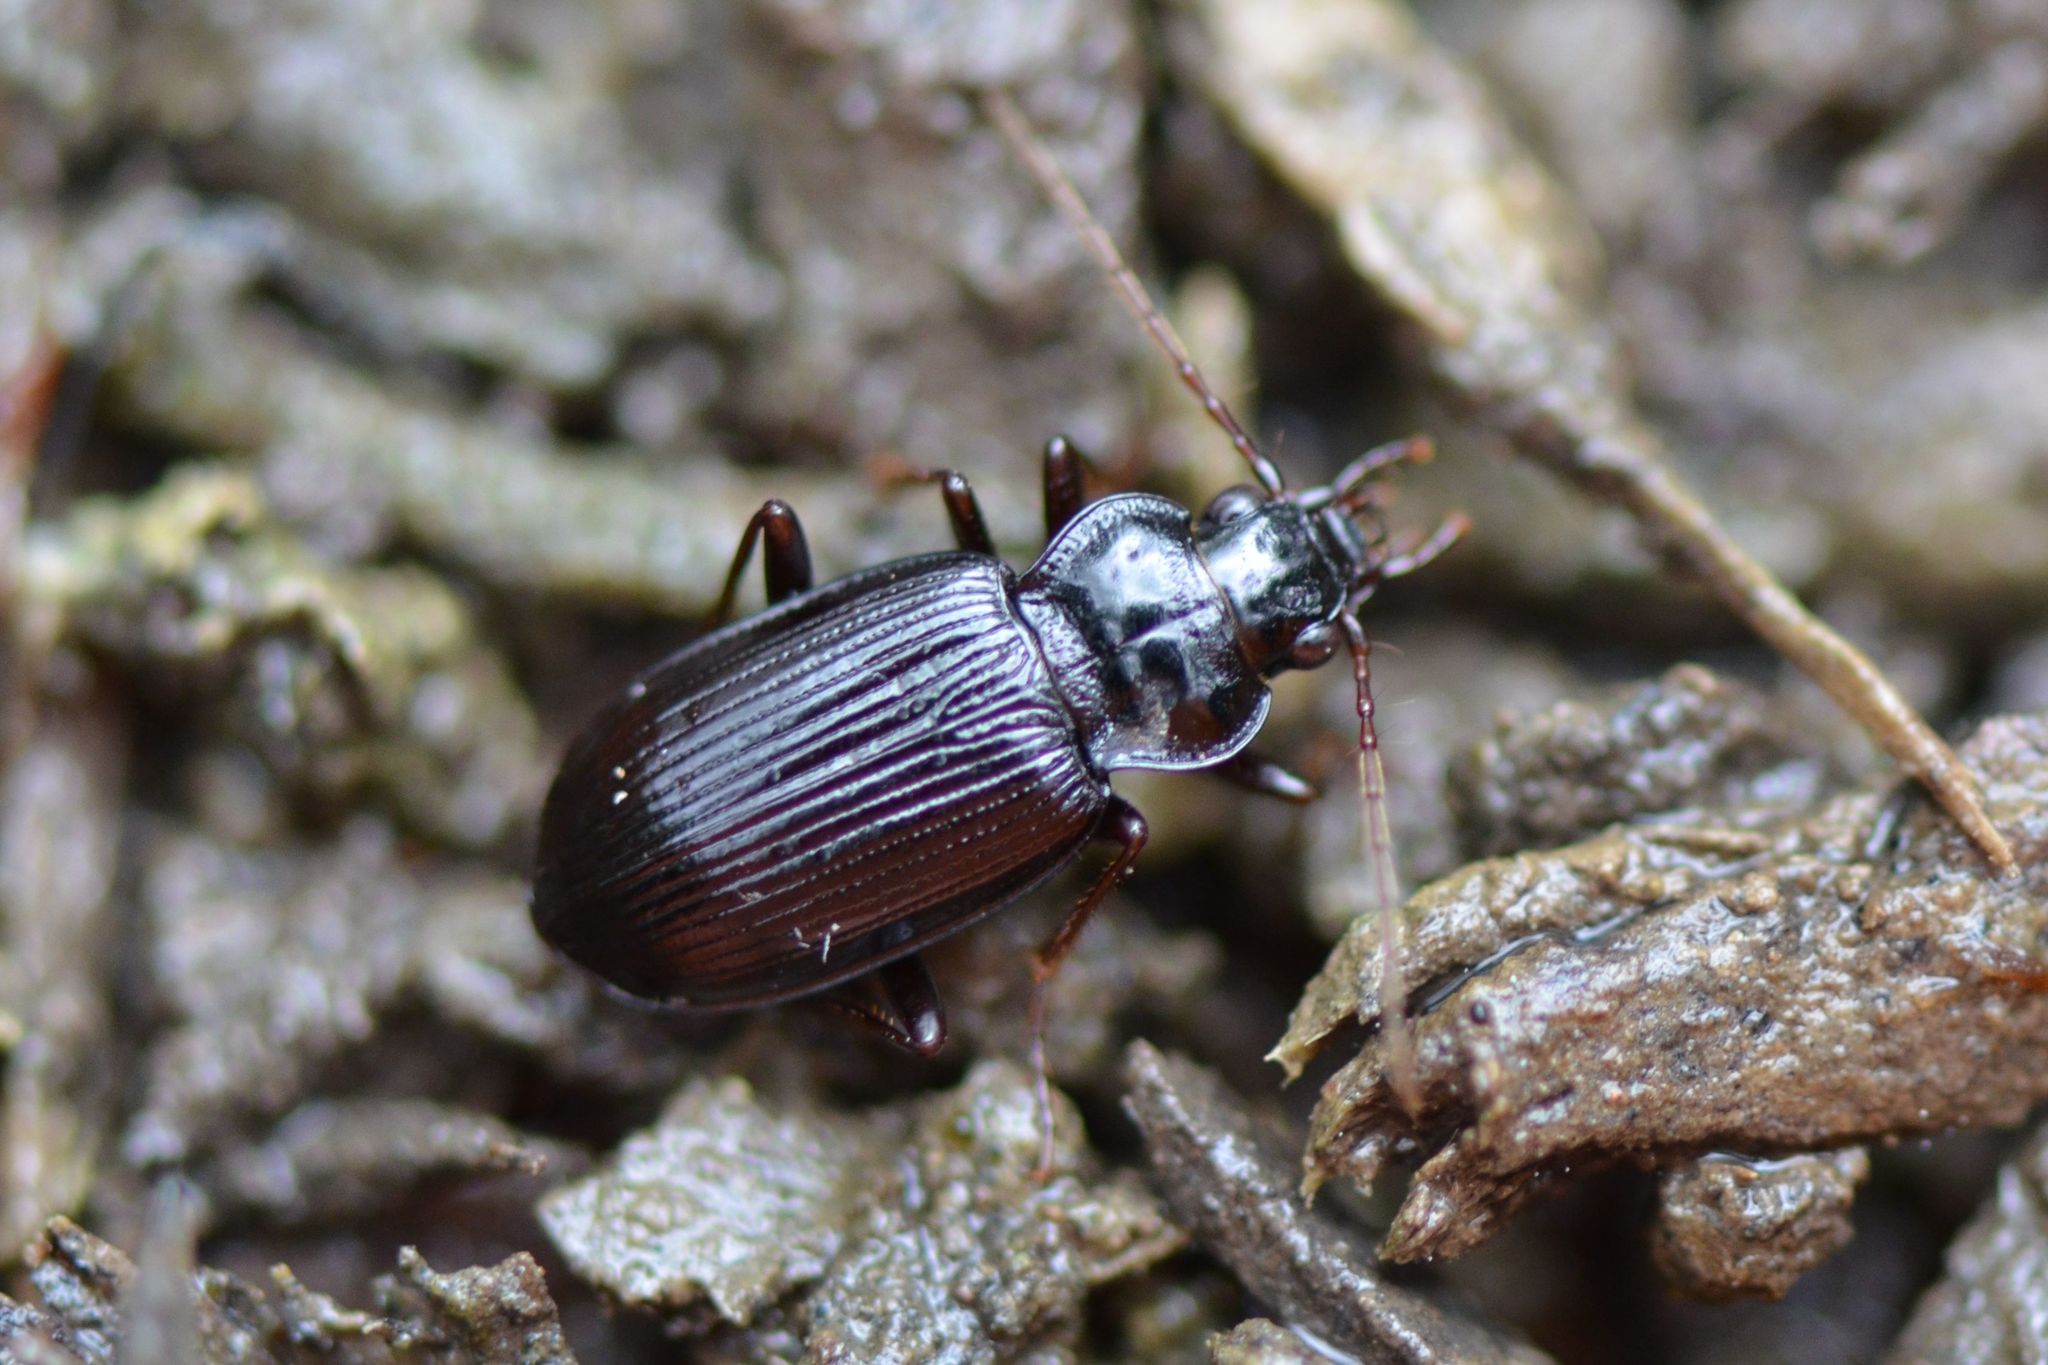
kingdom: Animalia
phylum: Arthropoda
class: Insecta
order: Coleoptera
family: Carabidae
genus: Nebria
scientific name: Nebria brevicollis
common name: Short-necked gazelle beetle
